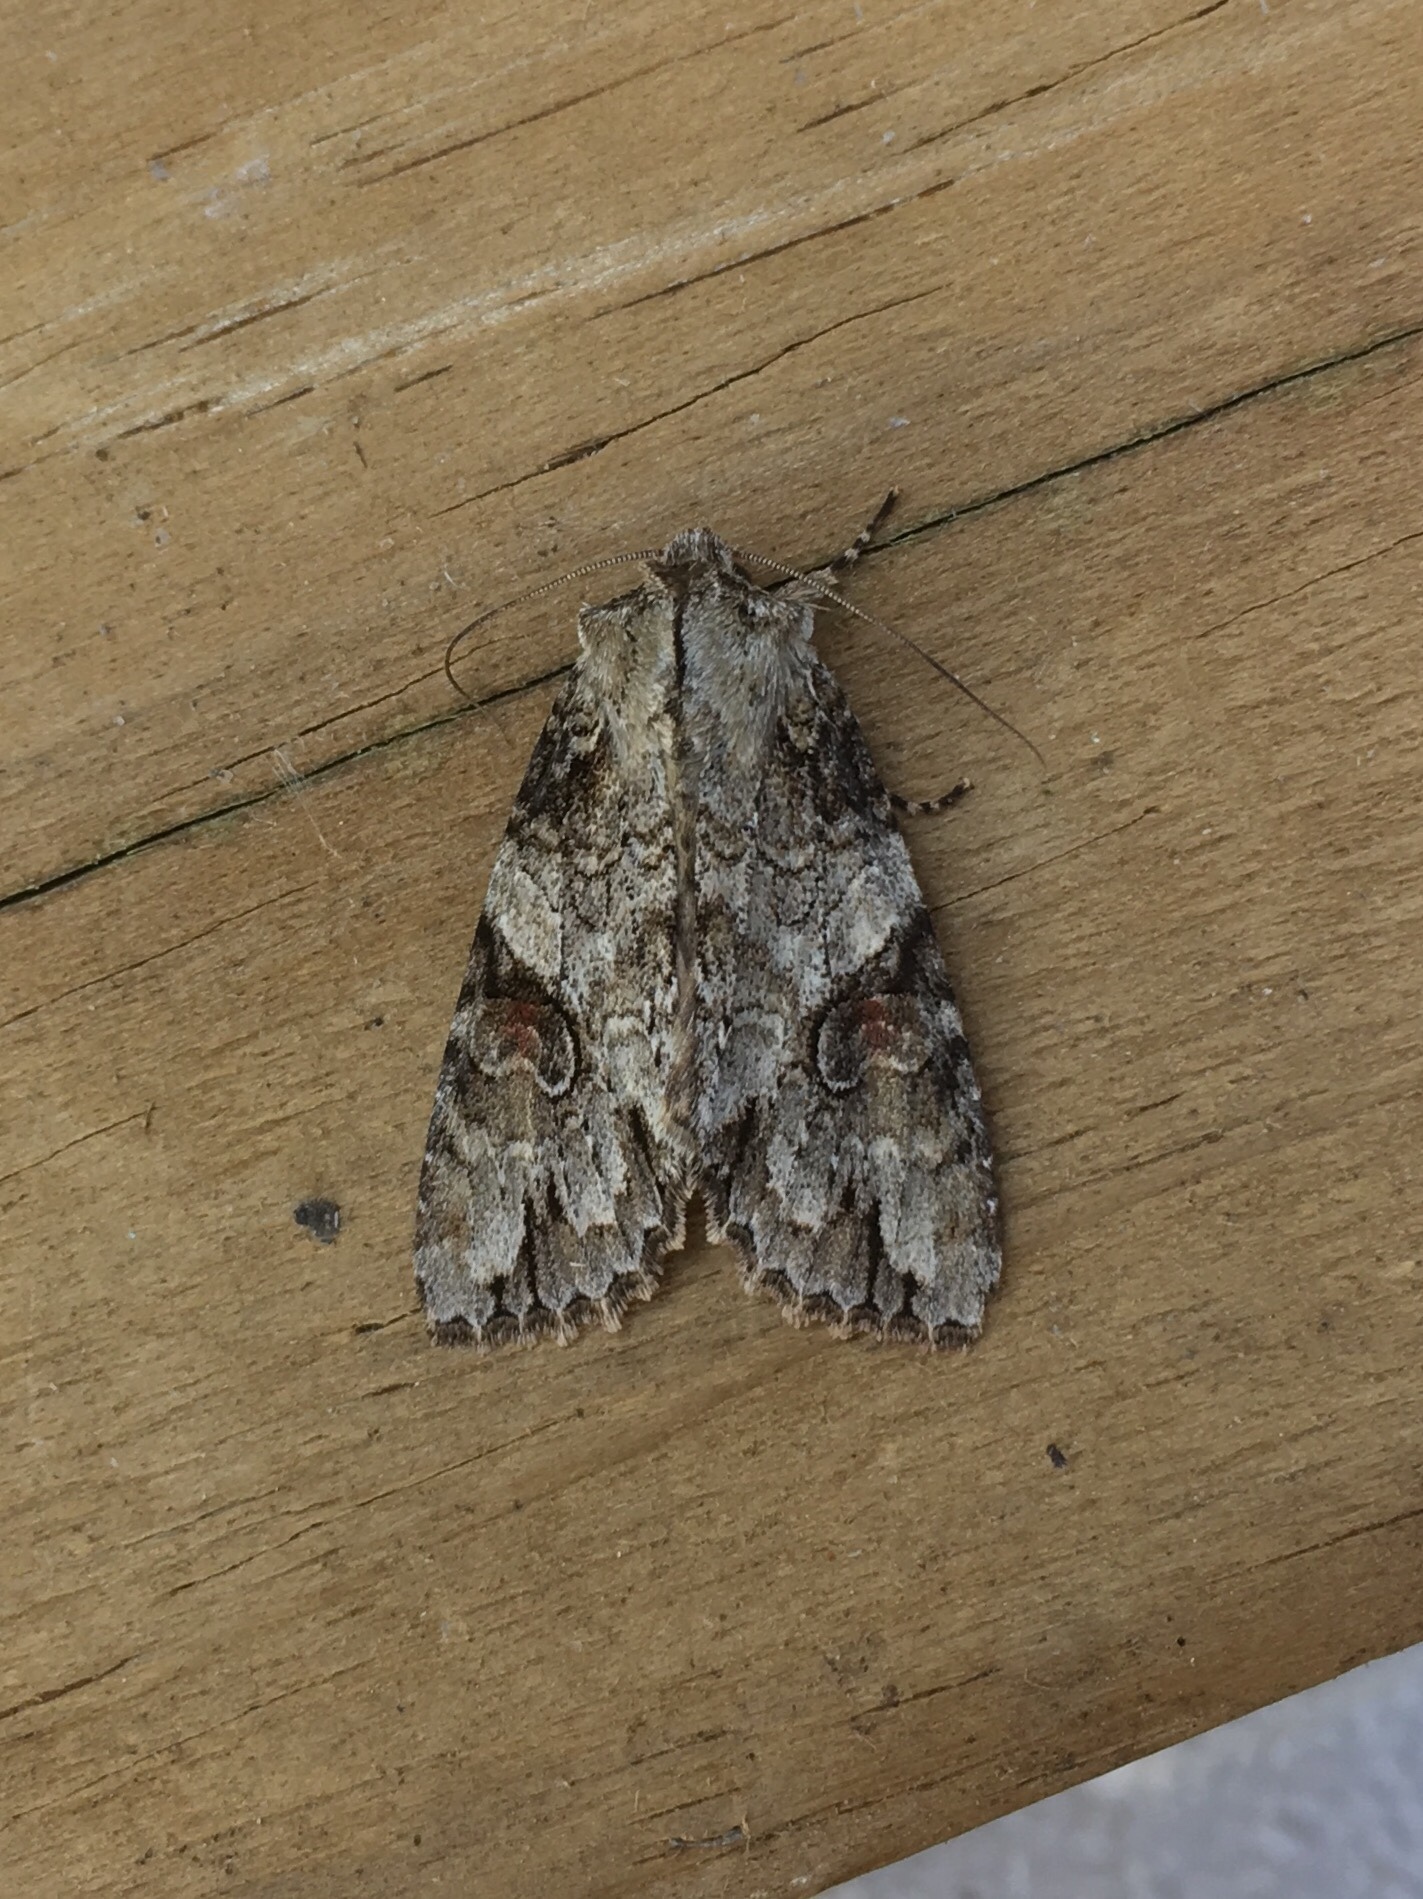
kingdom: Animalia
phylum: Arthropoda
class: Insecta
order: Lepidoptera
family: Noctuidae
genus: Achatia
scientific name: Achatia latex
